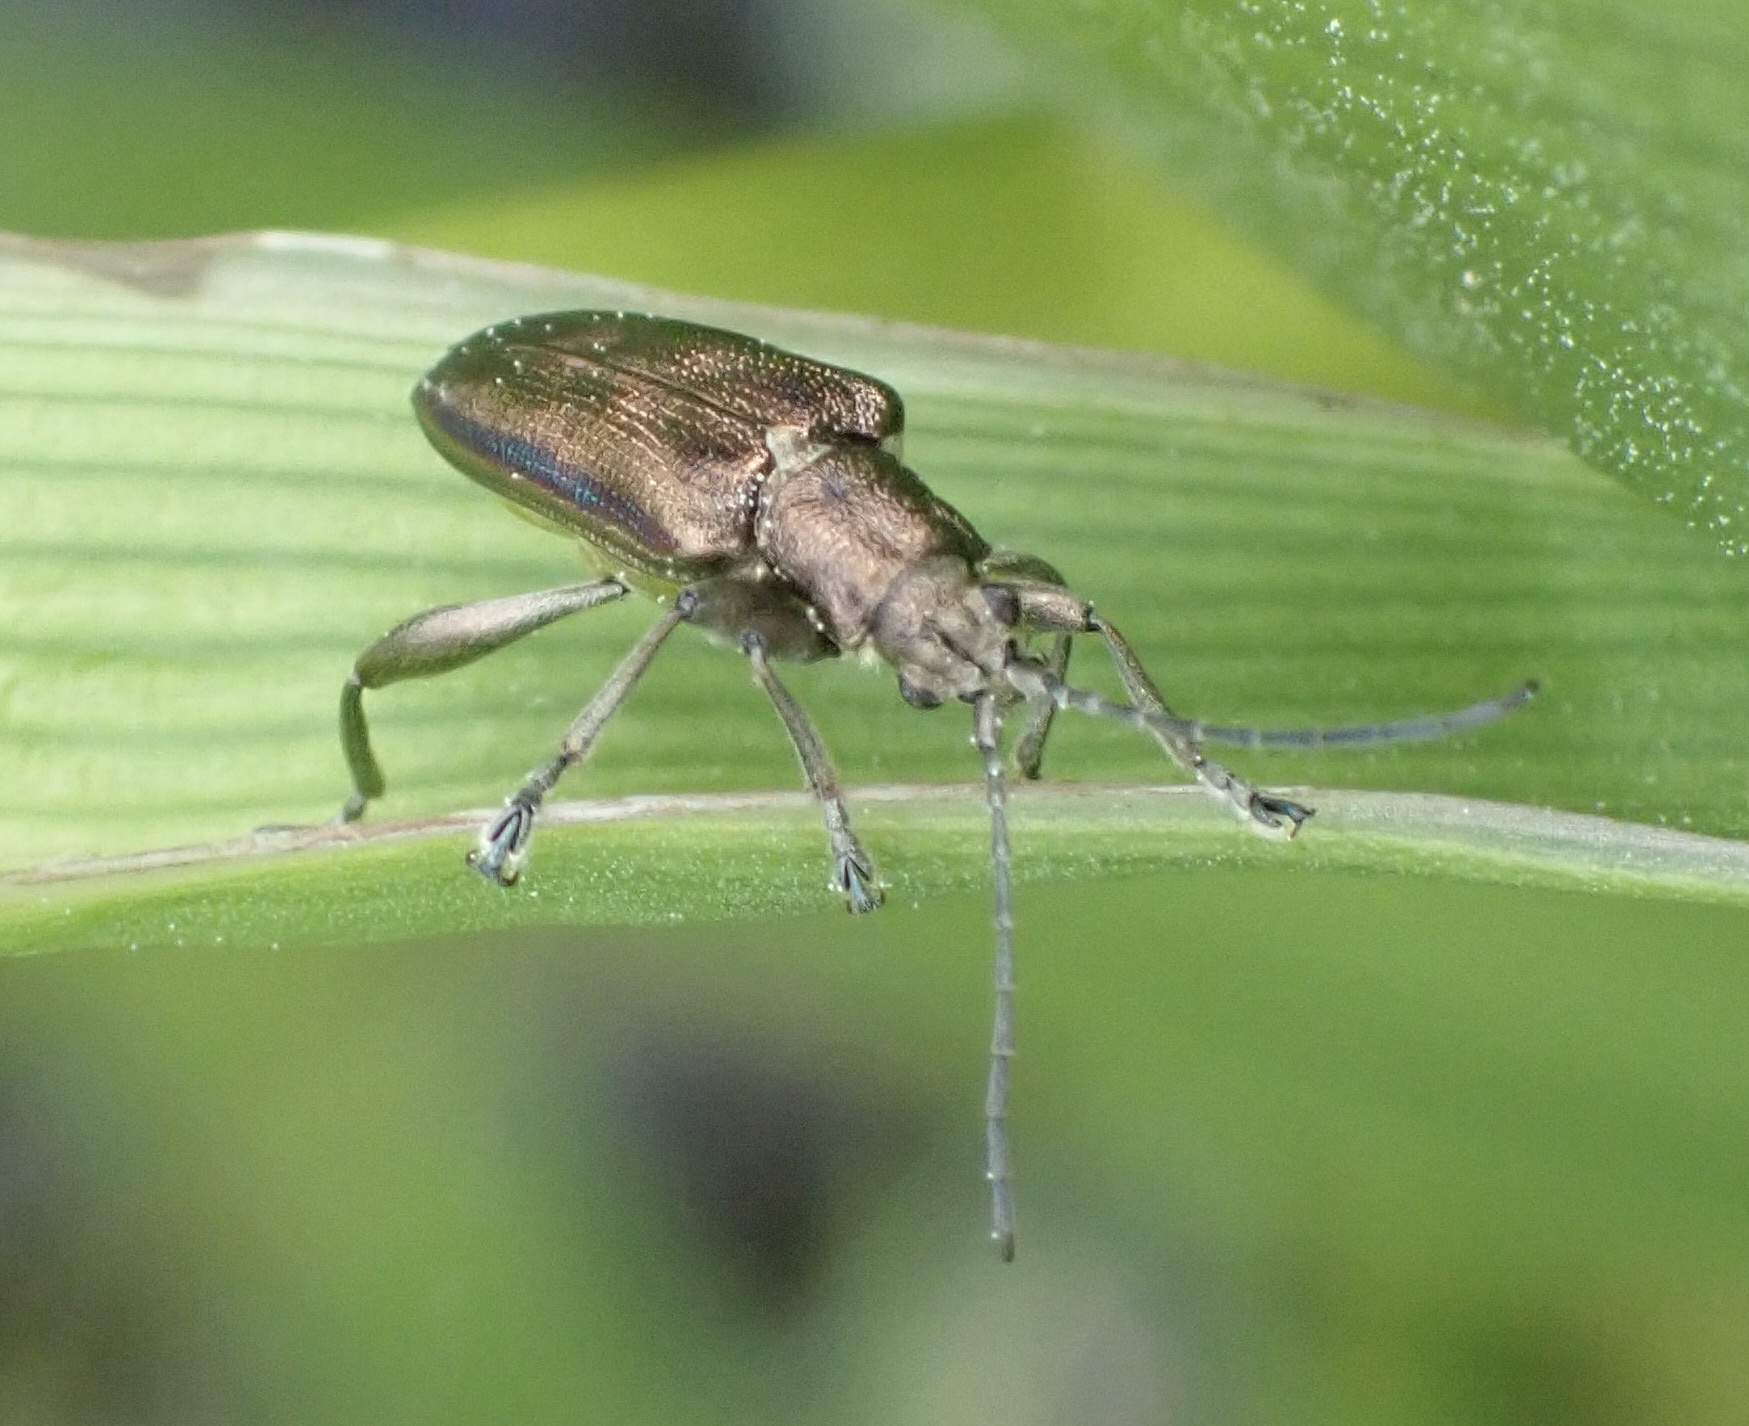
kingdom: Animalia
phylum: Arthropoda
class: Insecta
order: Coleoptera
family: Chrysomelidae
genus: Donacia
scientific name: Donacia marginata
